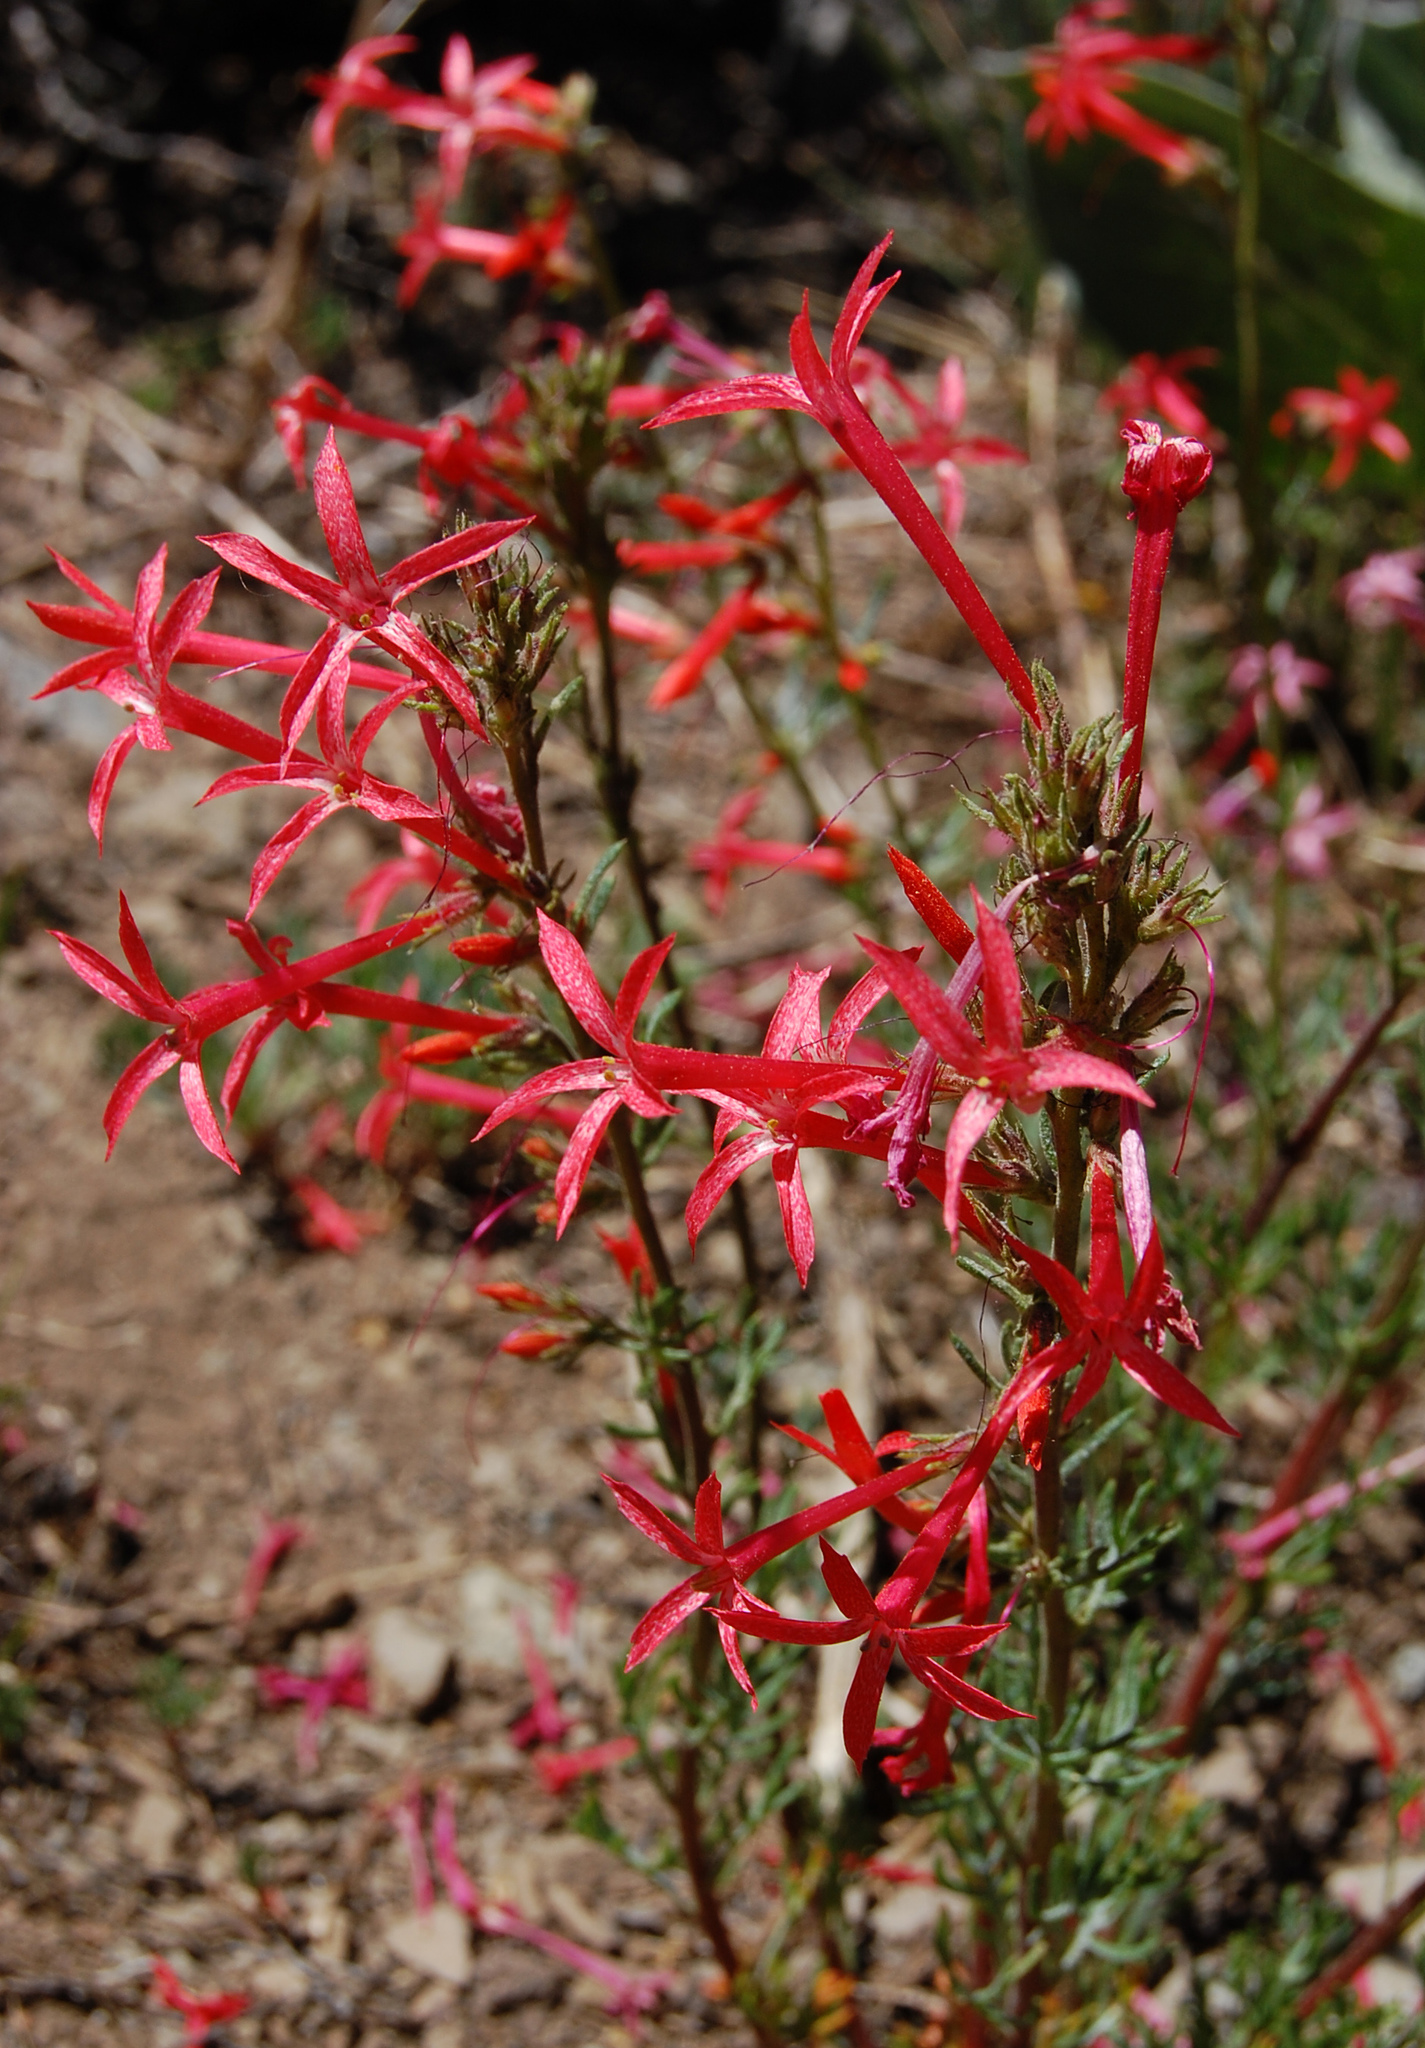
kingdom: Plantae
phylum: Tracheophyta
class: Magnoliopsida
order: Ericales
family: Polemoniaceae
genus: Ipomopsis
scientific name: Ipomopsis aggregata
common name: Scarlet gilia
